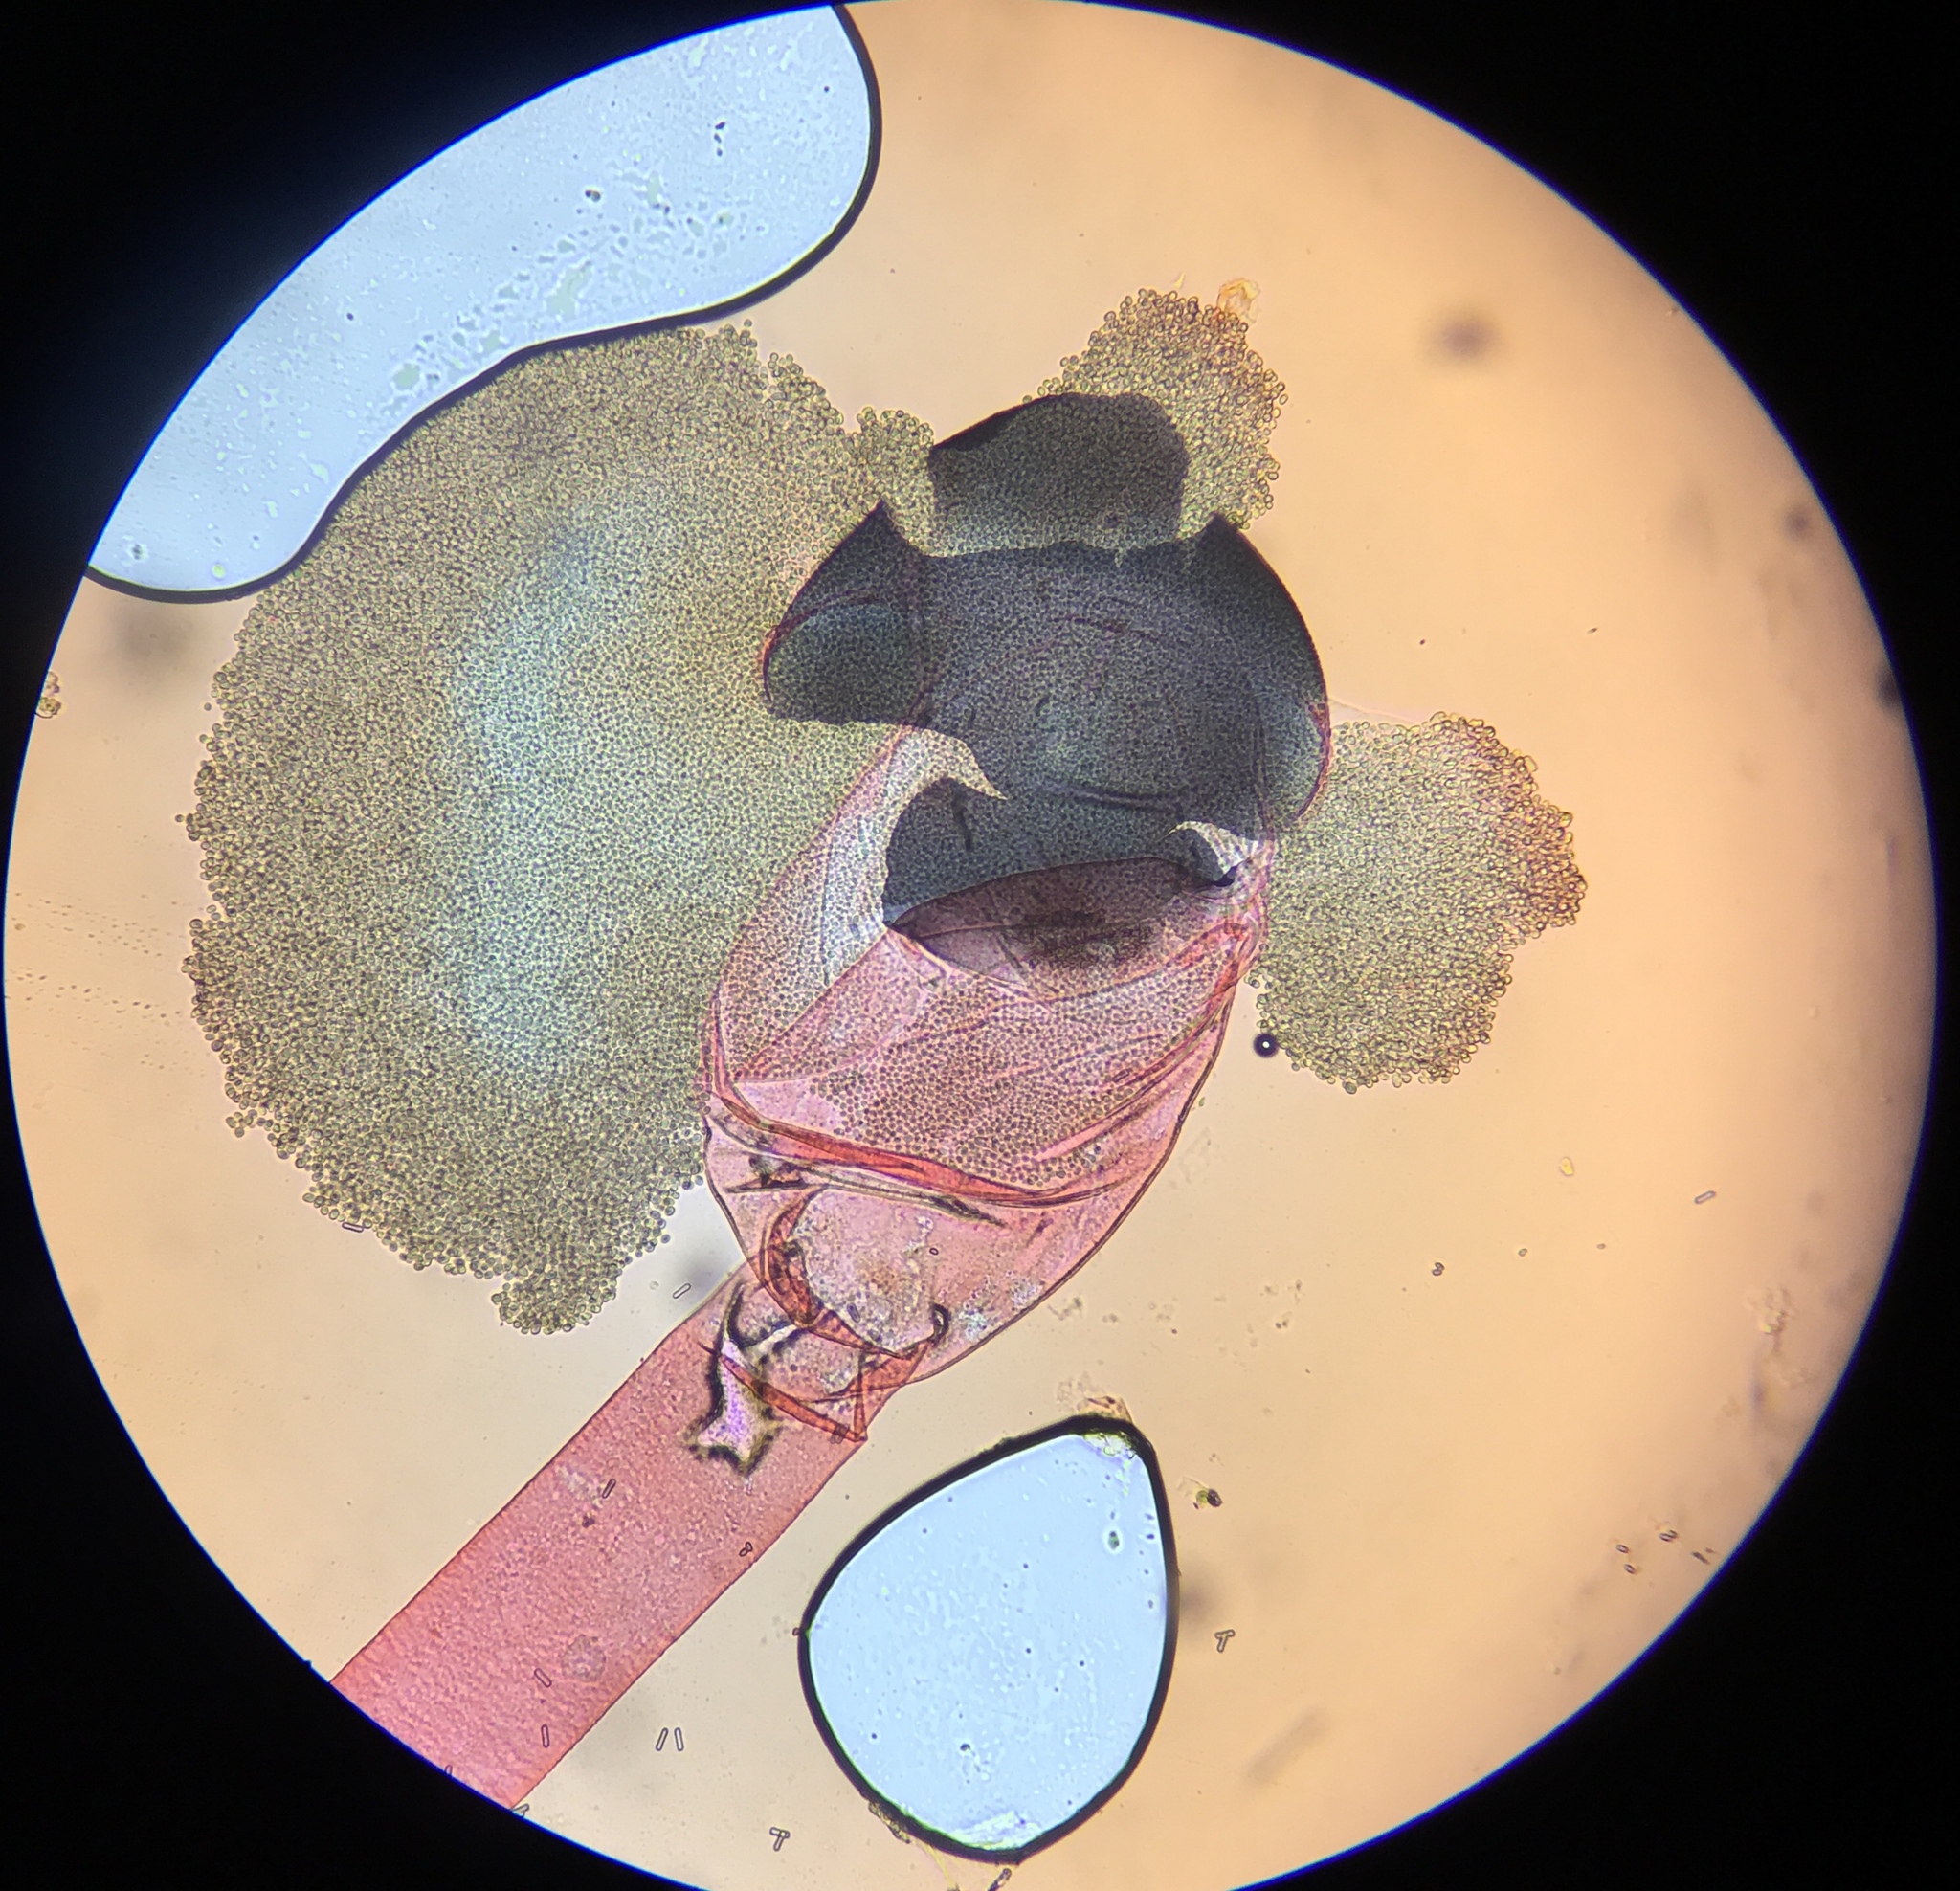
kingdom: Fungi
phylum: Mucoromycota
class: Mucoromycetes
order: Mucorales
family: Pilobolaceae
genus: Pilobolus
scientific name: Pilobolus roridus
